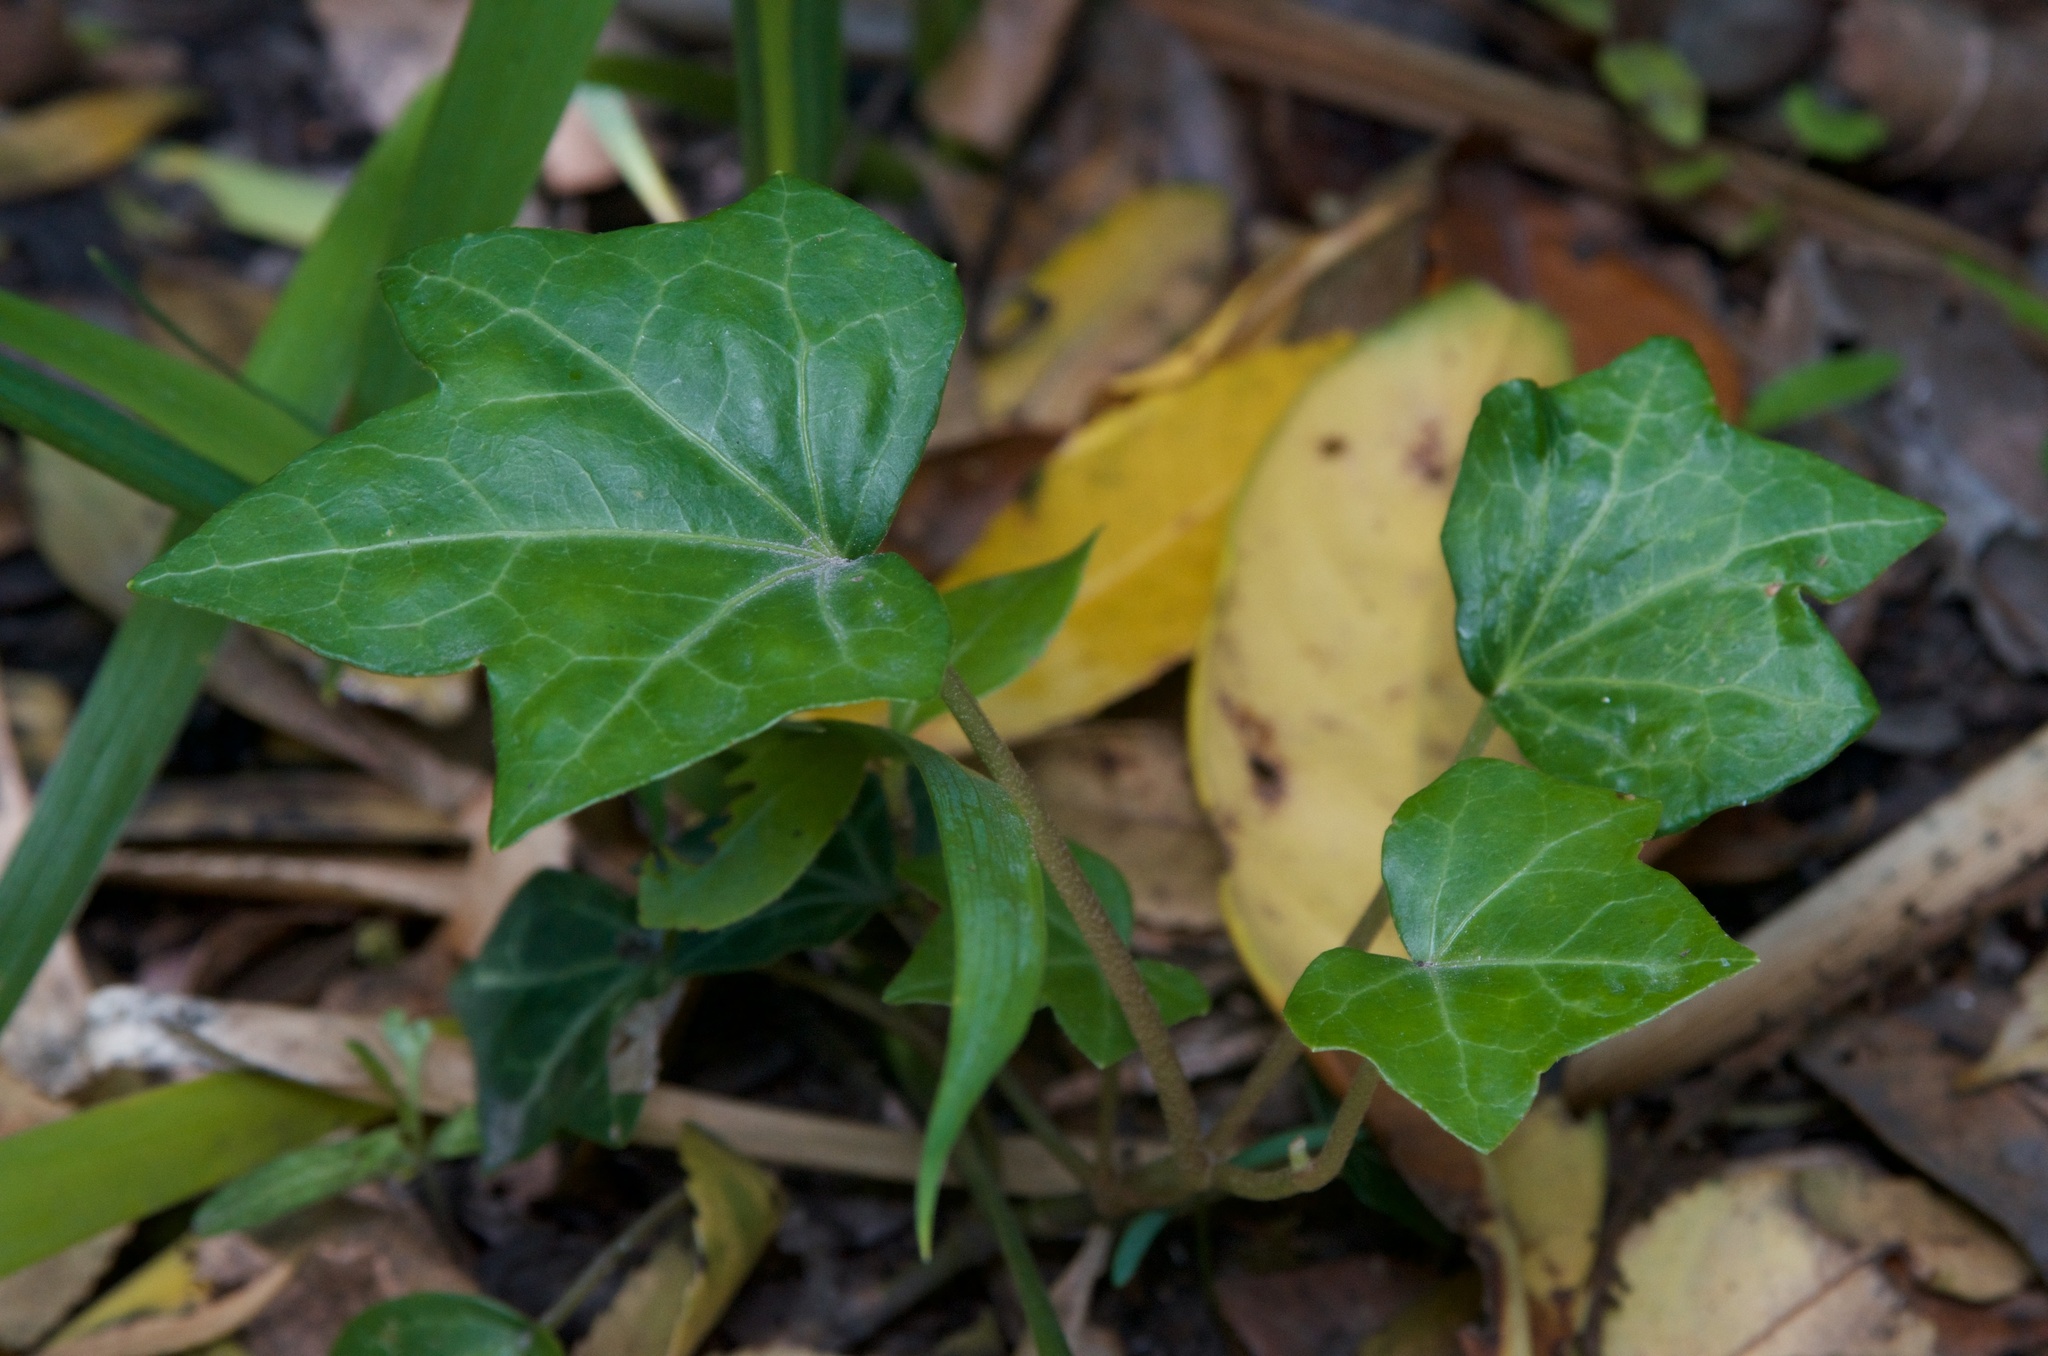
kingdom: Plantae
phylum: Tracheophyta
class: Magnoliopsida
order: Apiales
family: Araliaceae
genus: Hedera
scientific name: Hedera helix
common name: Ivy
